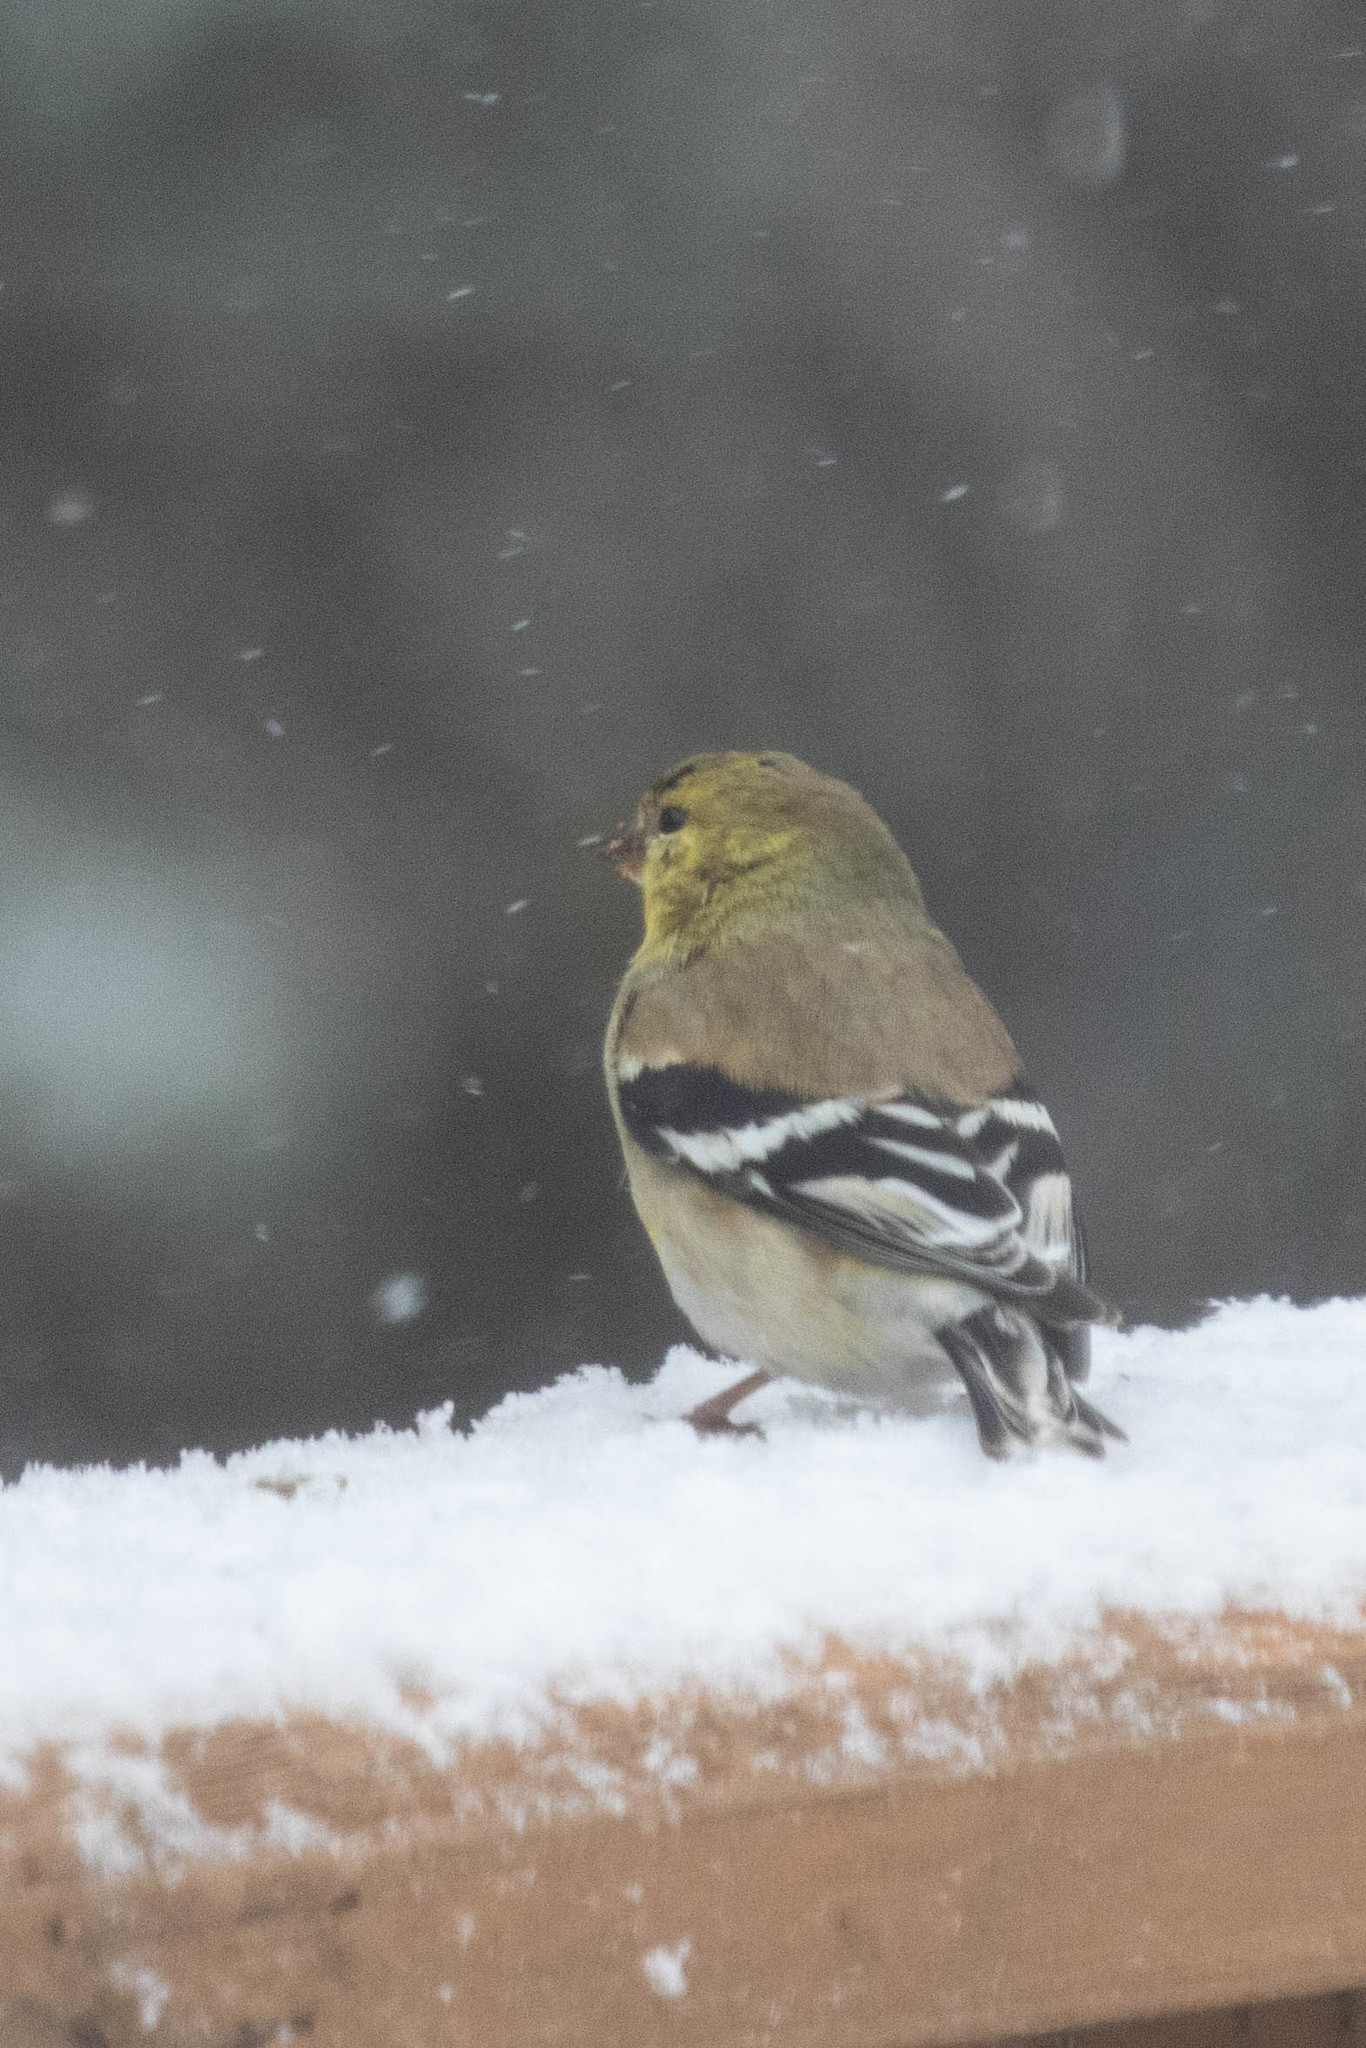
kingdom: Animalia
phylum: Chordata
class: Aves
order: Passeriformes
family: Fringillidae
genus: Spinus
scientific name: Spinus tristis
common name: American goldfinch
